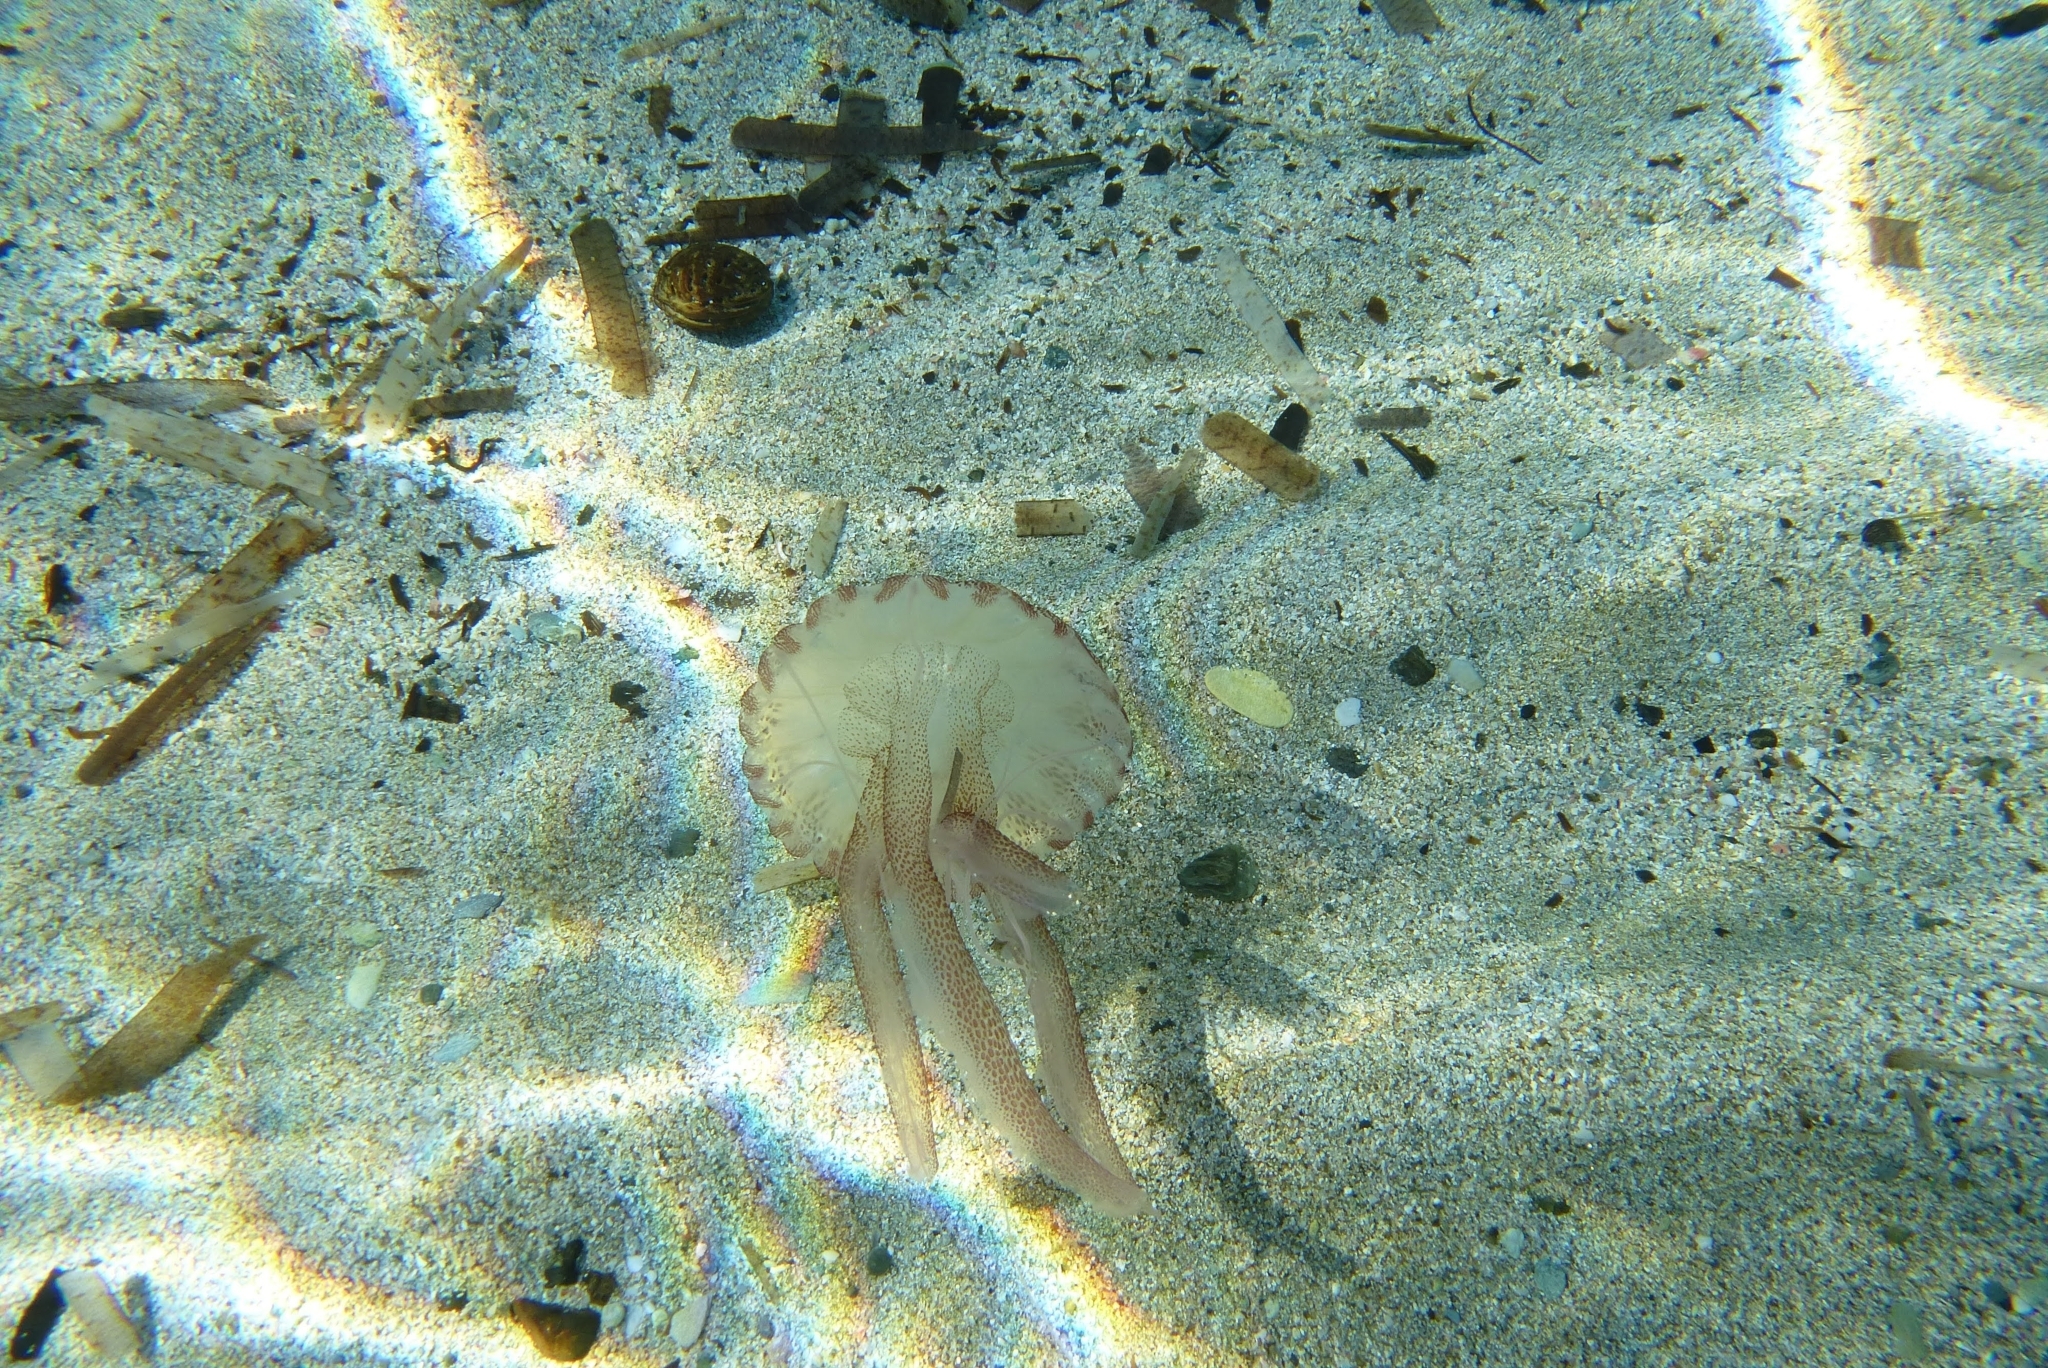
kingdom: Animalia
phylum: Cnidaria
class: Scyphozoa
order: Semaeostomeae
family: Pelagiidae
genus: Pelagia
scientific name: Pelagia noctiluca
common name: Mauve stinger
